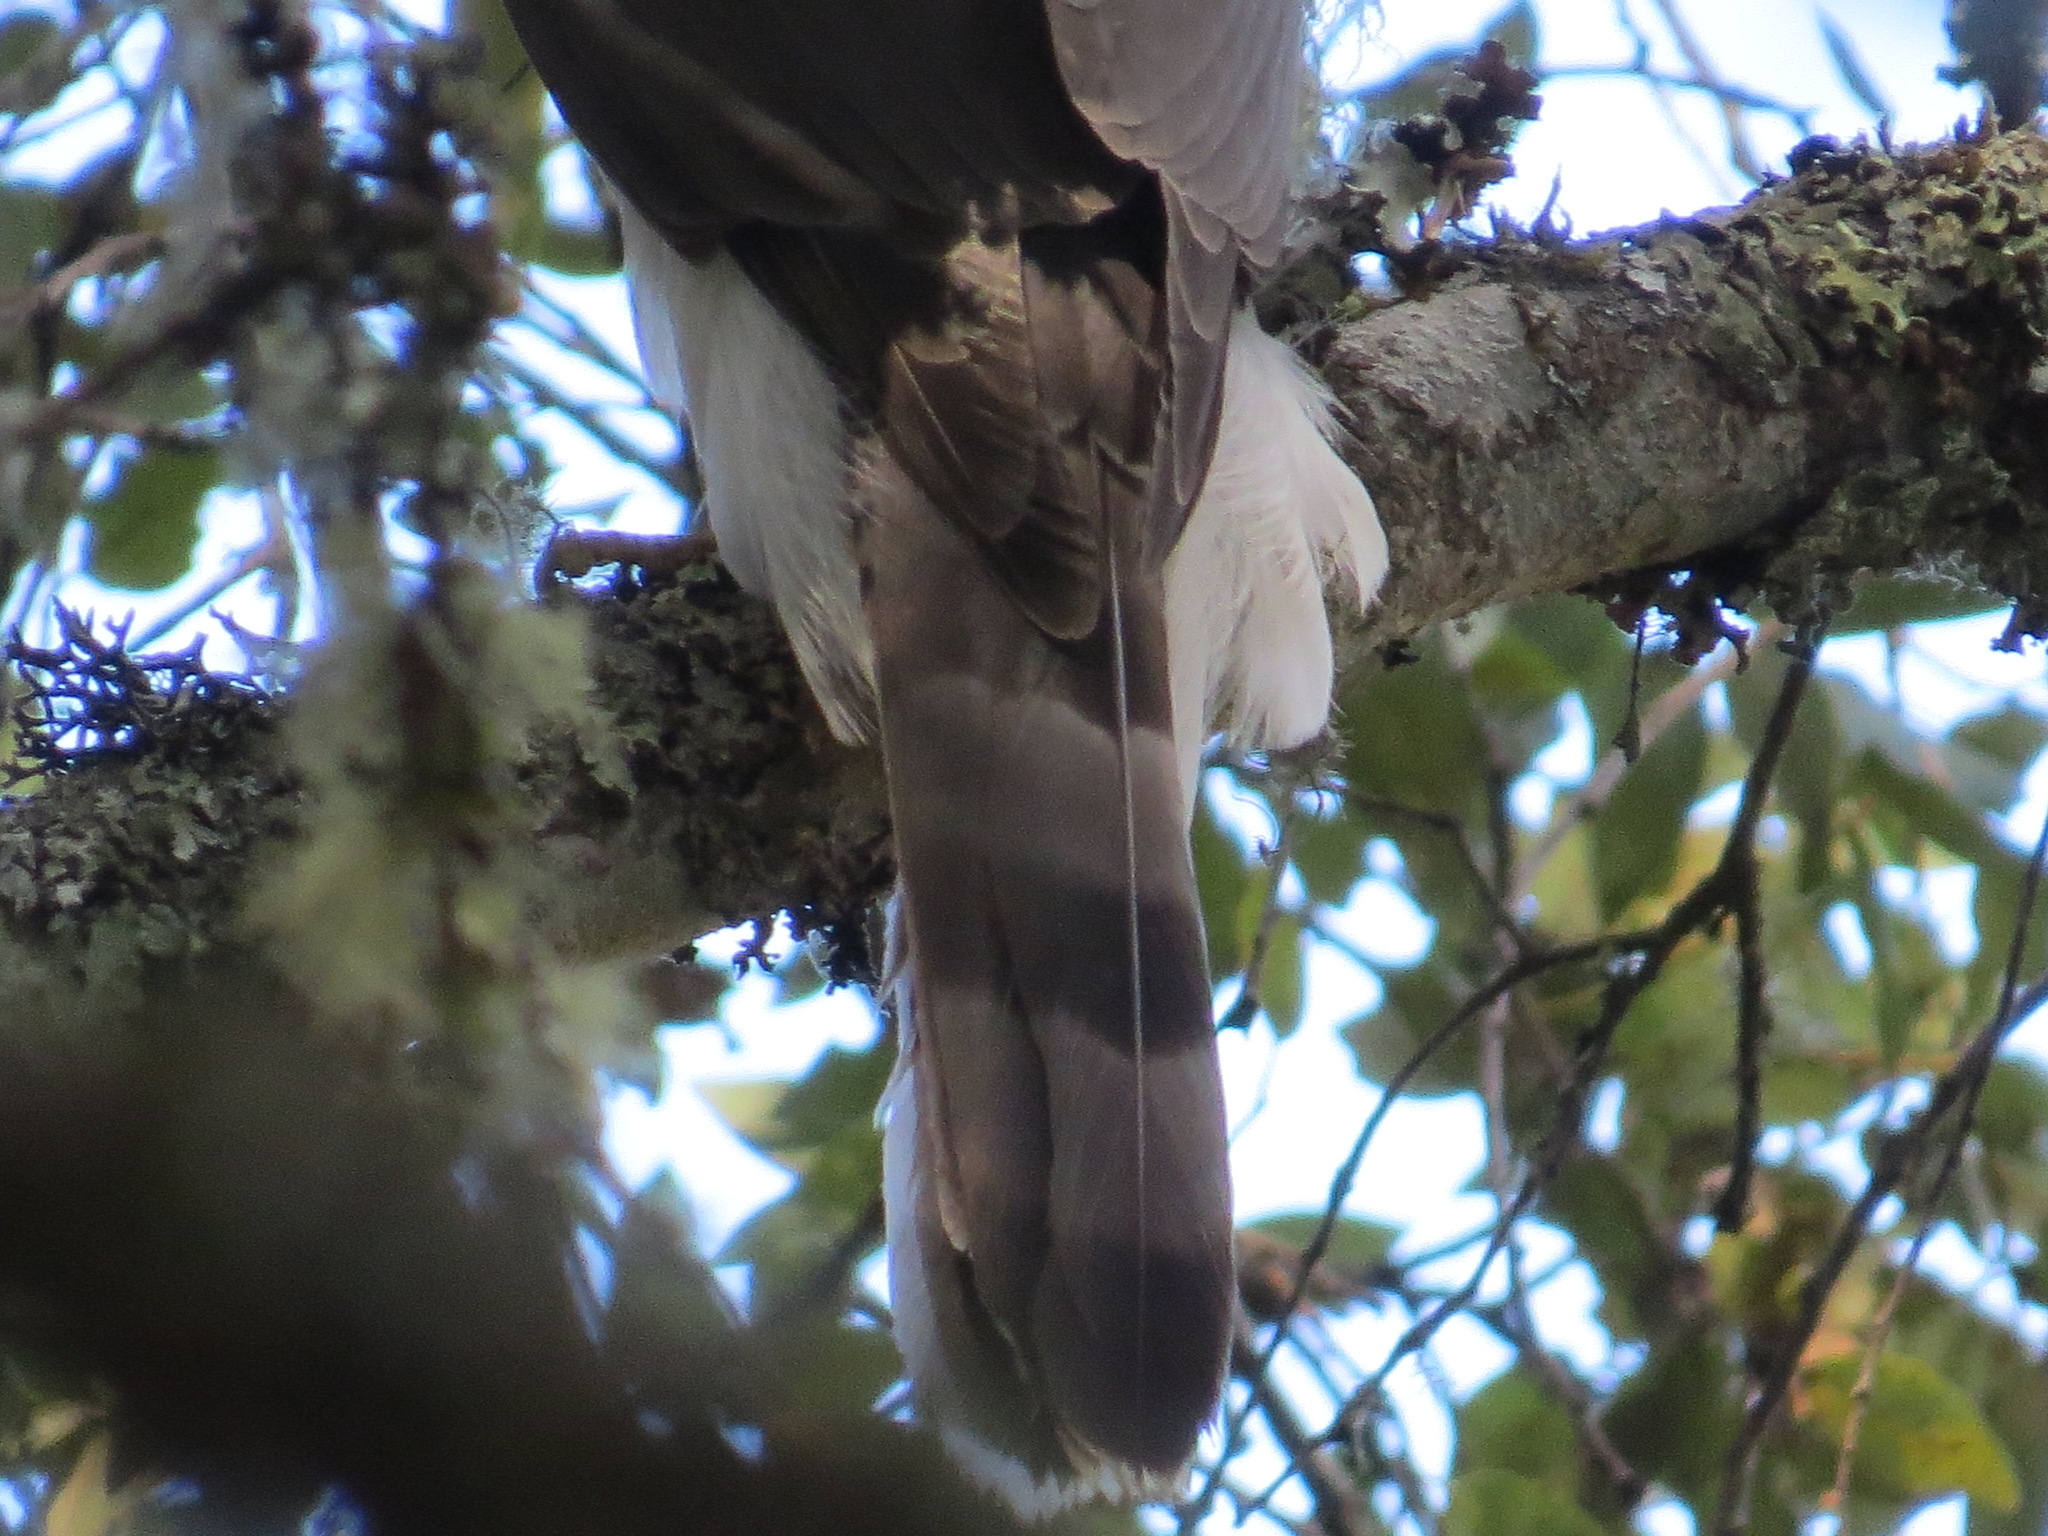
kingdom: Animalia
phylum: Chordata
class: Aves
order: Accipitriformes
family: Accipitridae
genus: Accipiter
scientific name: Accipiter cooperii
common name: Cooper's hawk
